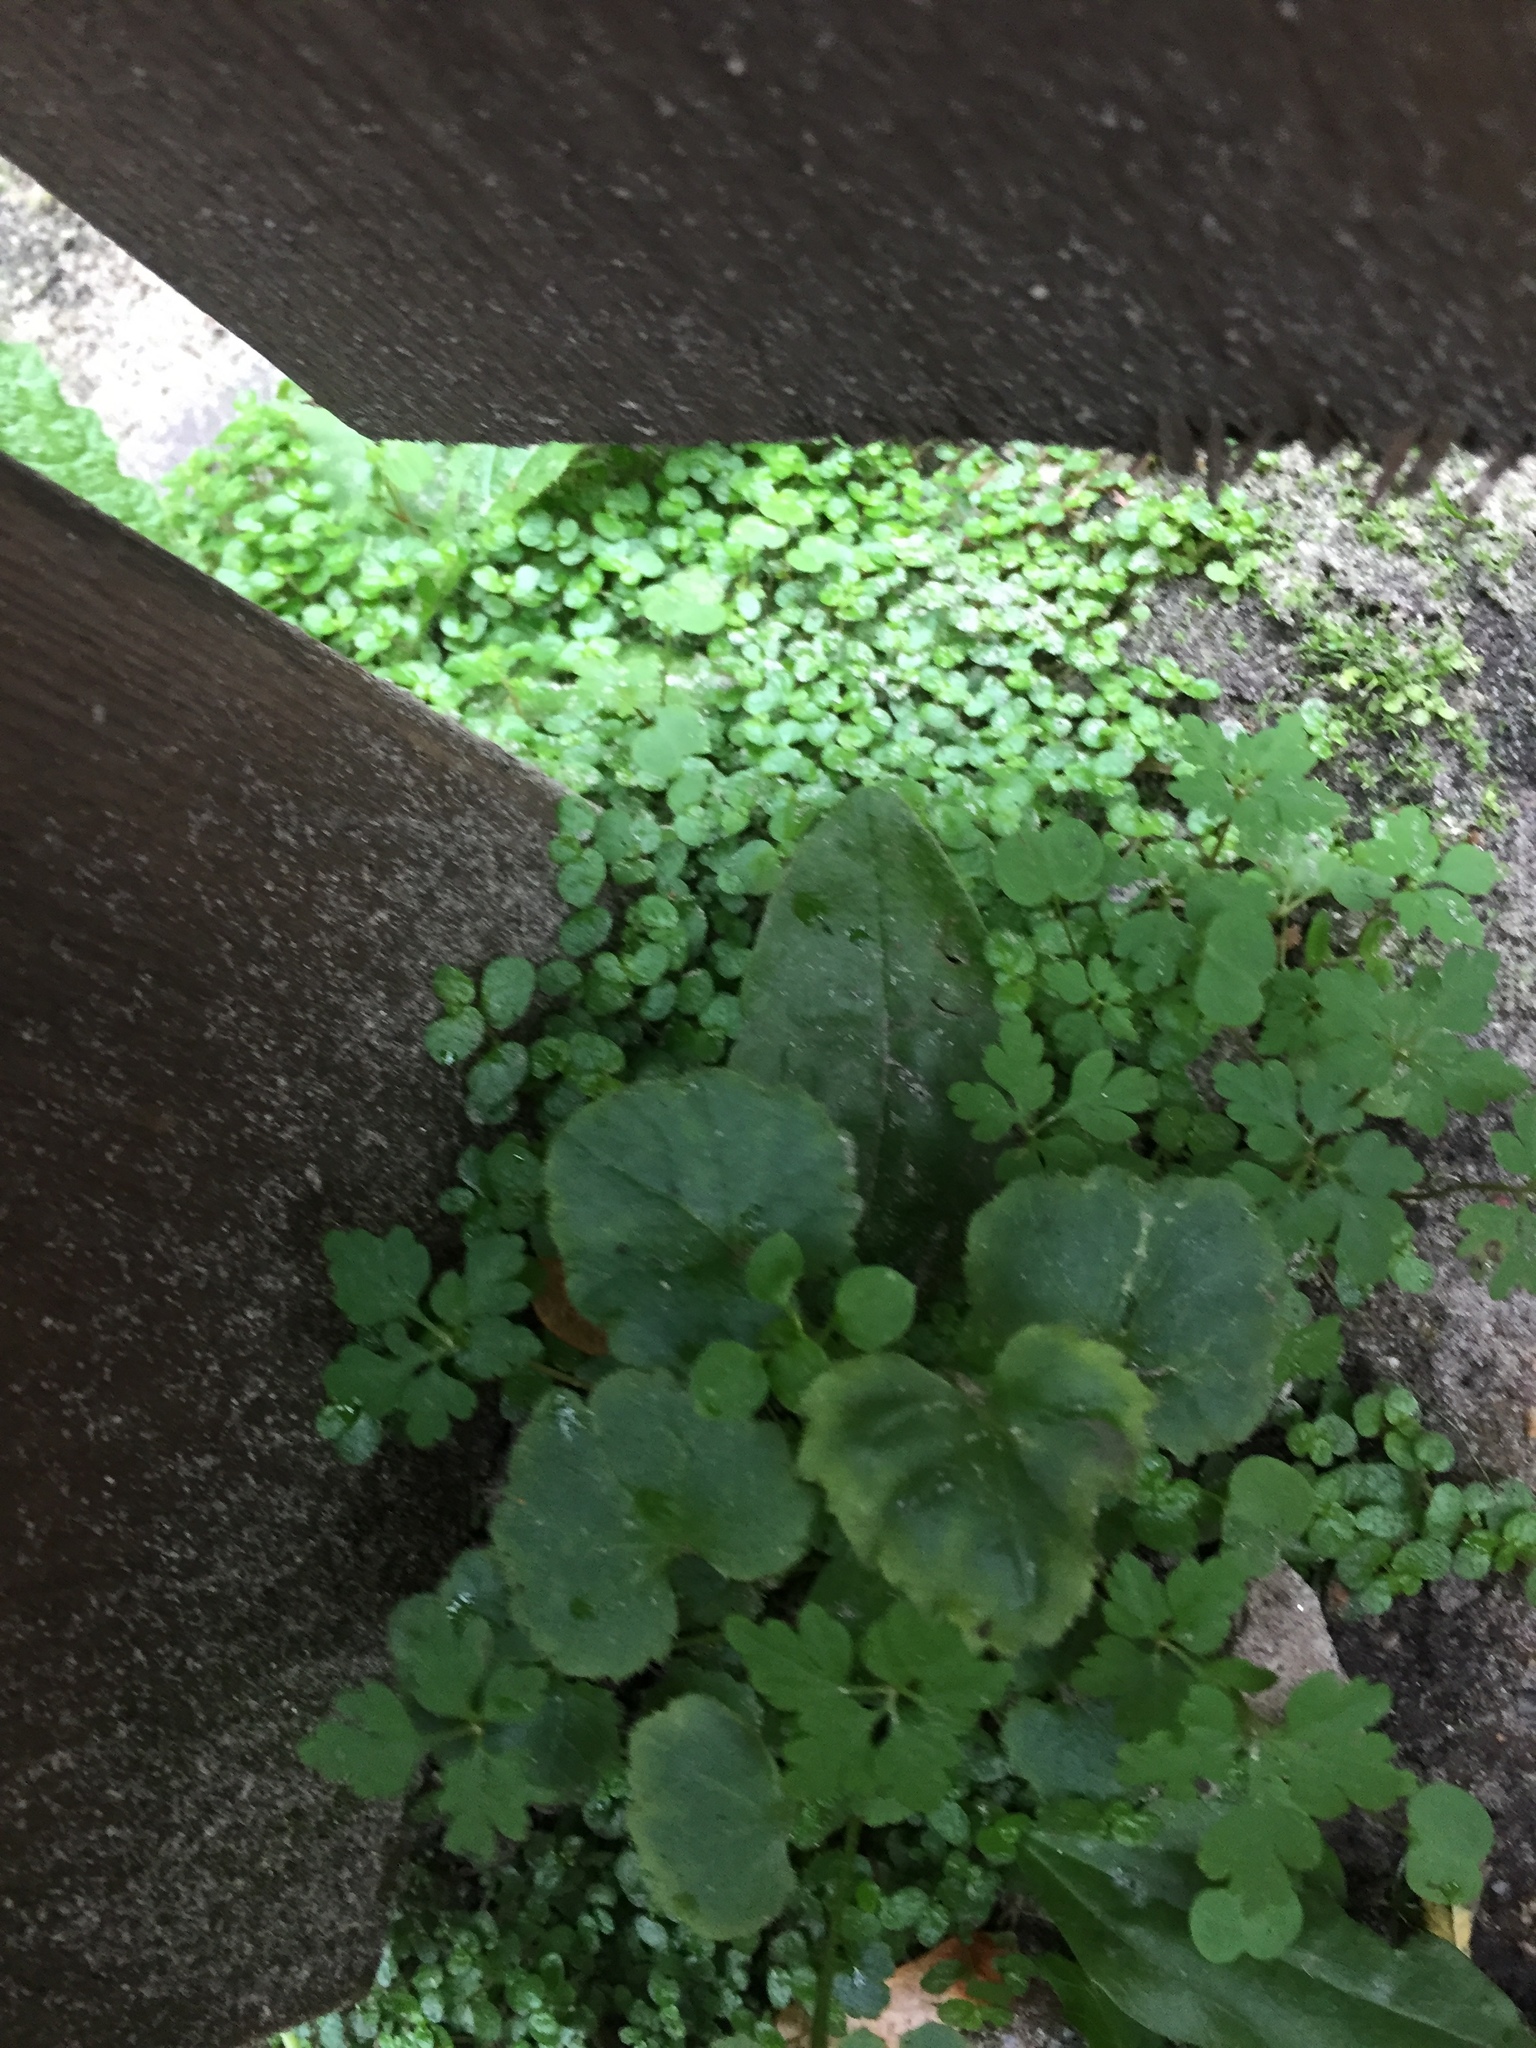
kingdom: Plantae
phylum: Tracheophyta
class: Magnoliopsida
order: Rosales
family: Urticaceae
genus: Soleirolia
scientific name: Soleirolia soleirolii
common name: Mind-your-own-business
